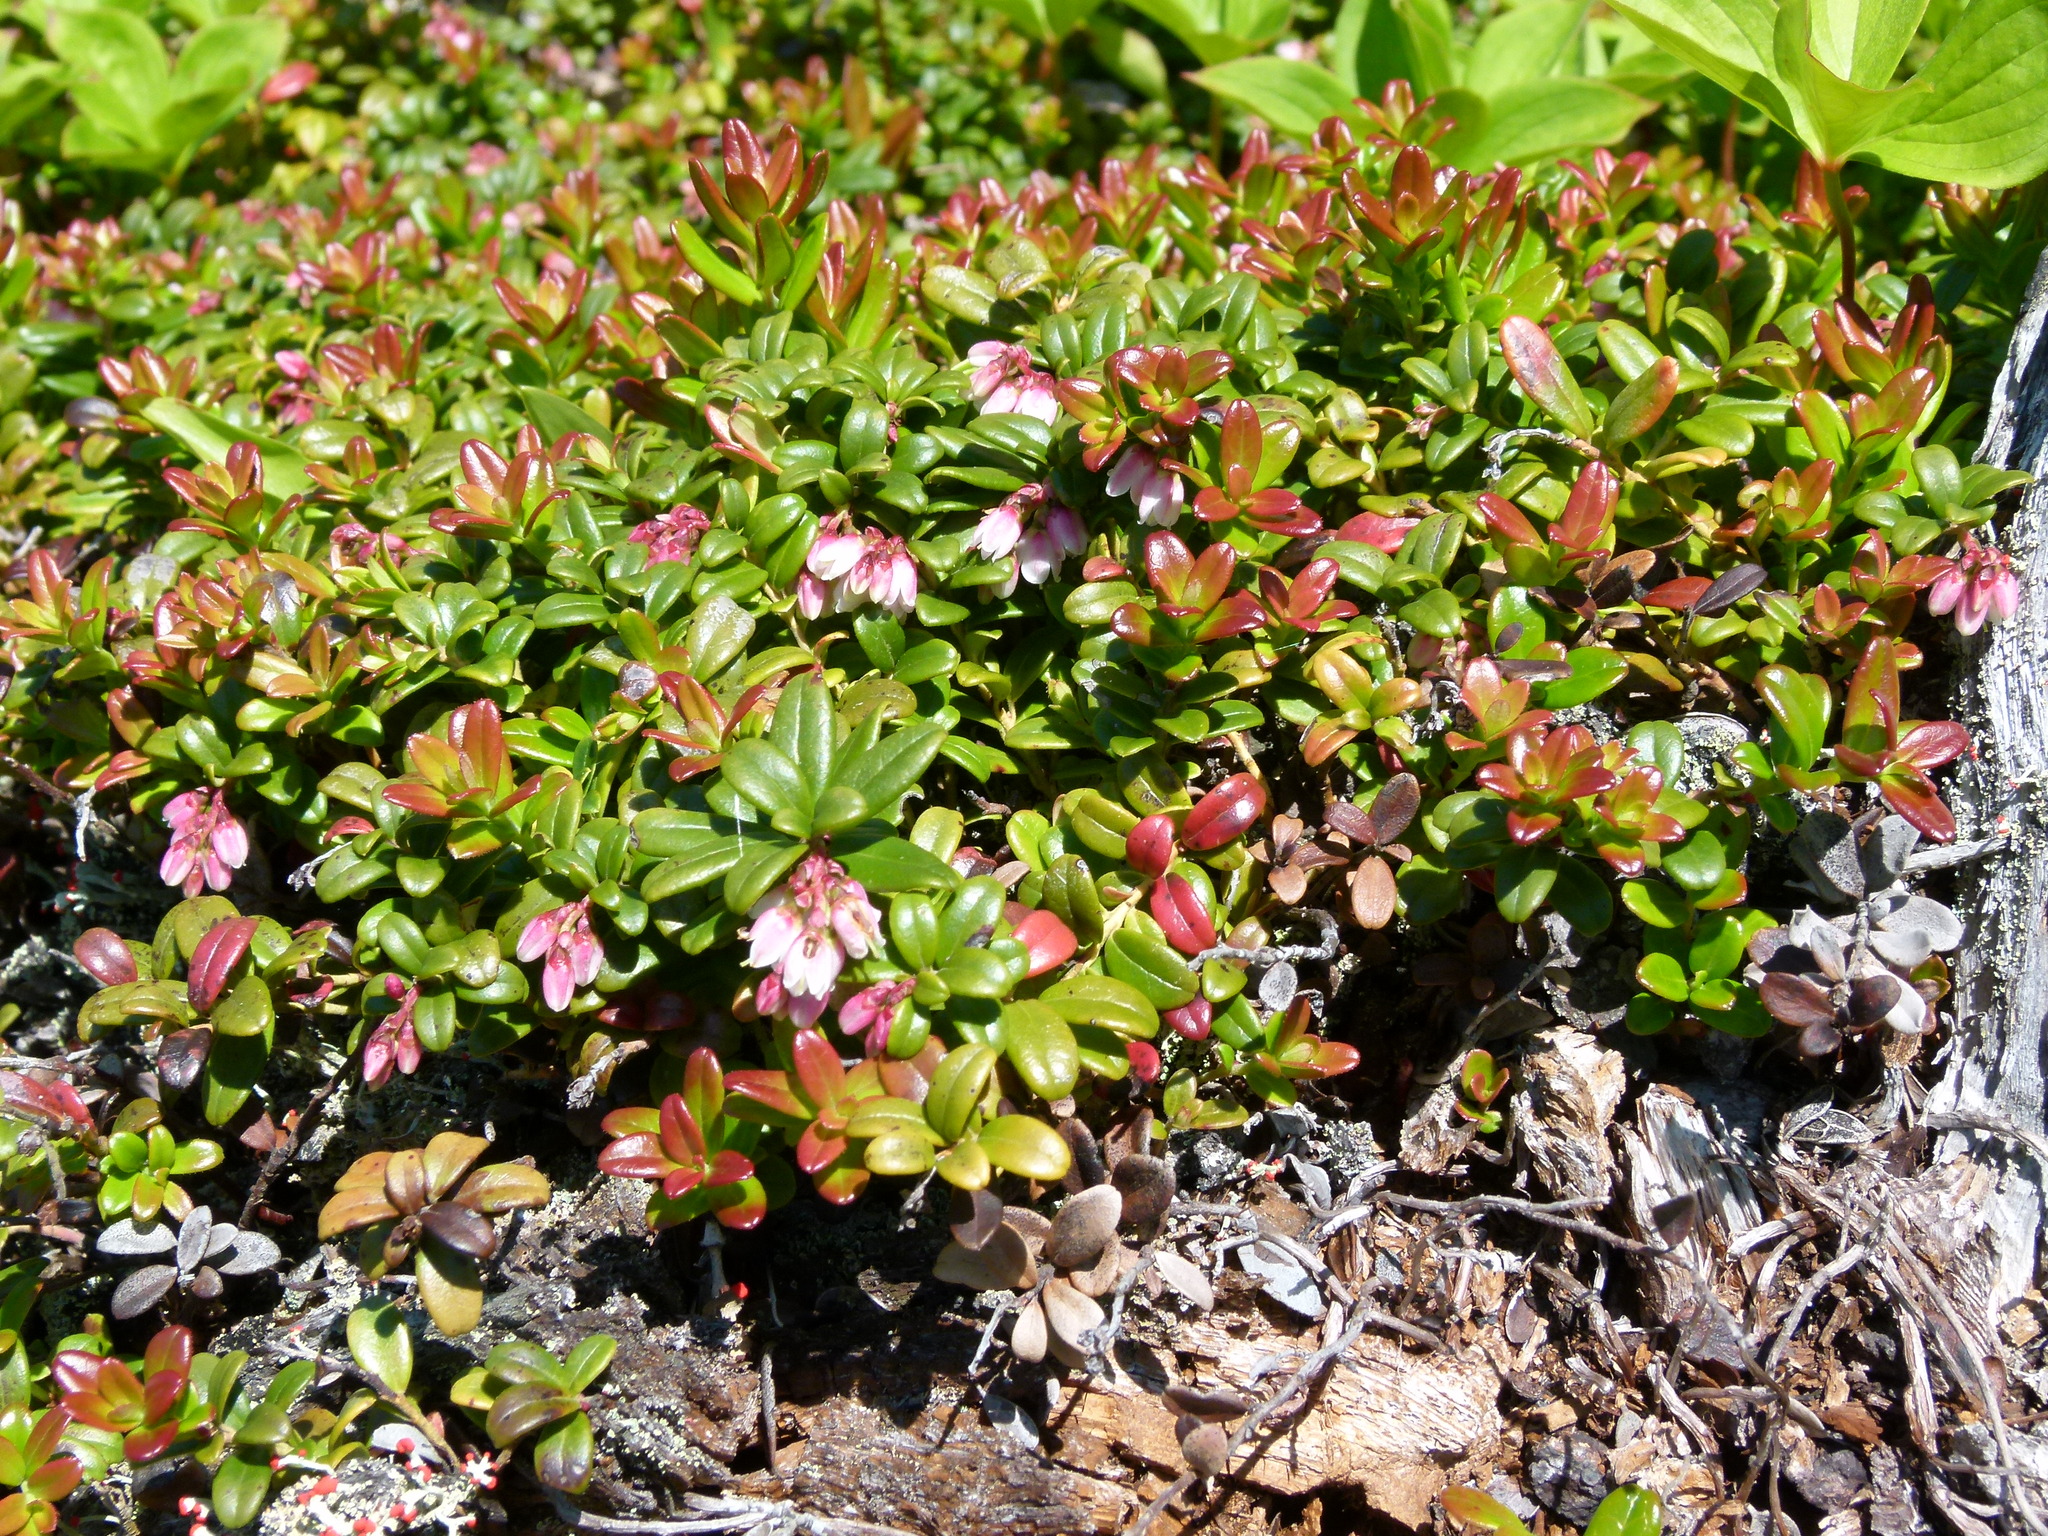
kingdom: Plantae
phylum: Tracheophyta
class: Magnoliopsida
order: Ericales
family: Ericaceae
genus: Vaccinium
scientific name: Vaccinium vitis-idaea
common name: Cowberry
